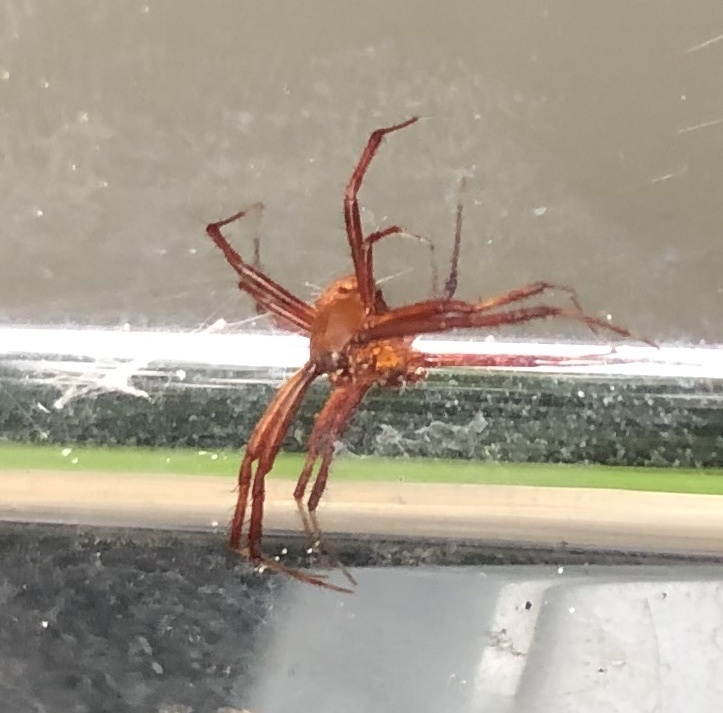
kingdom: Animalia
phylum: Arthropoda
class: Arachnida
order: Araneae
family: Araneidae
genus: Gea
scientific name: Gea heptagon
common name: Orb weavers
